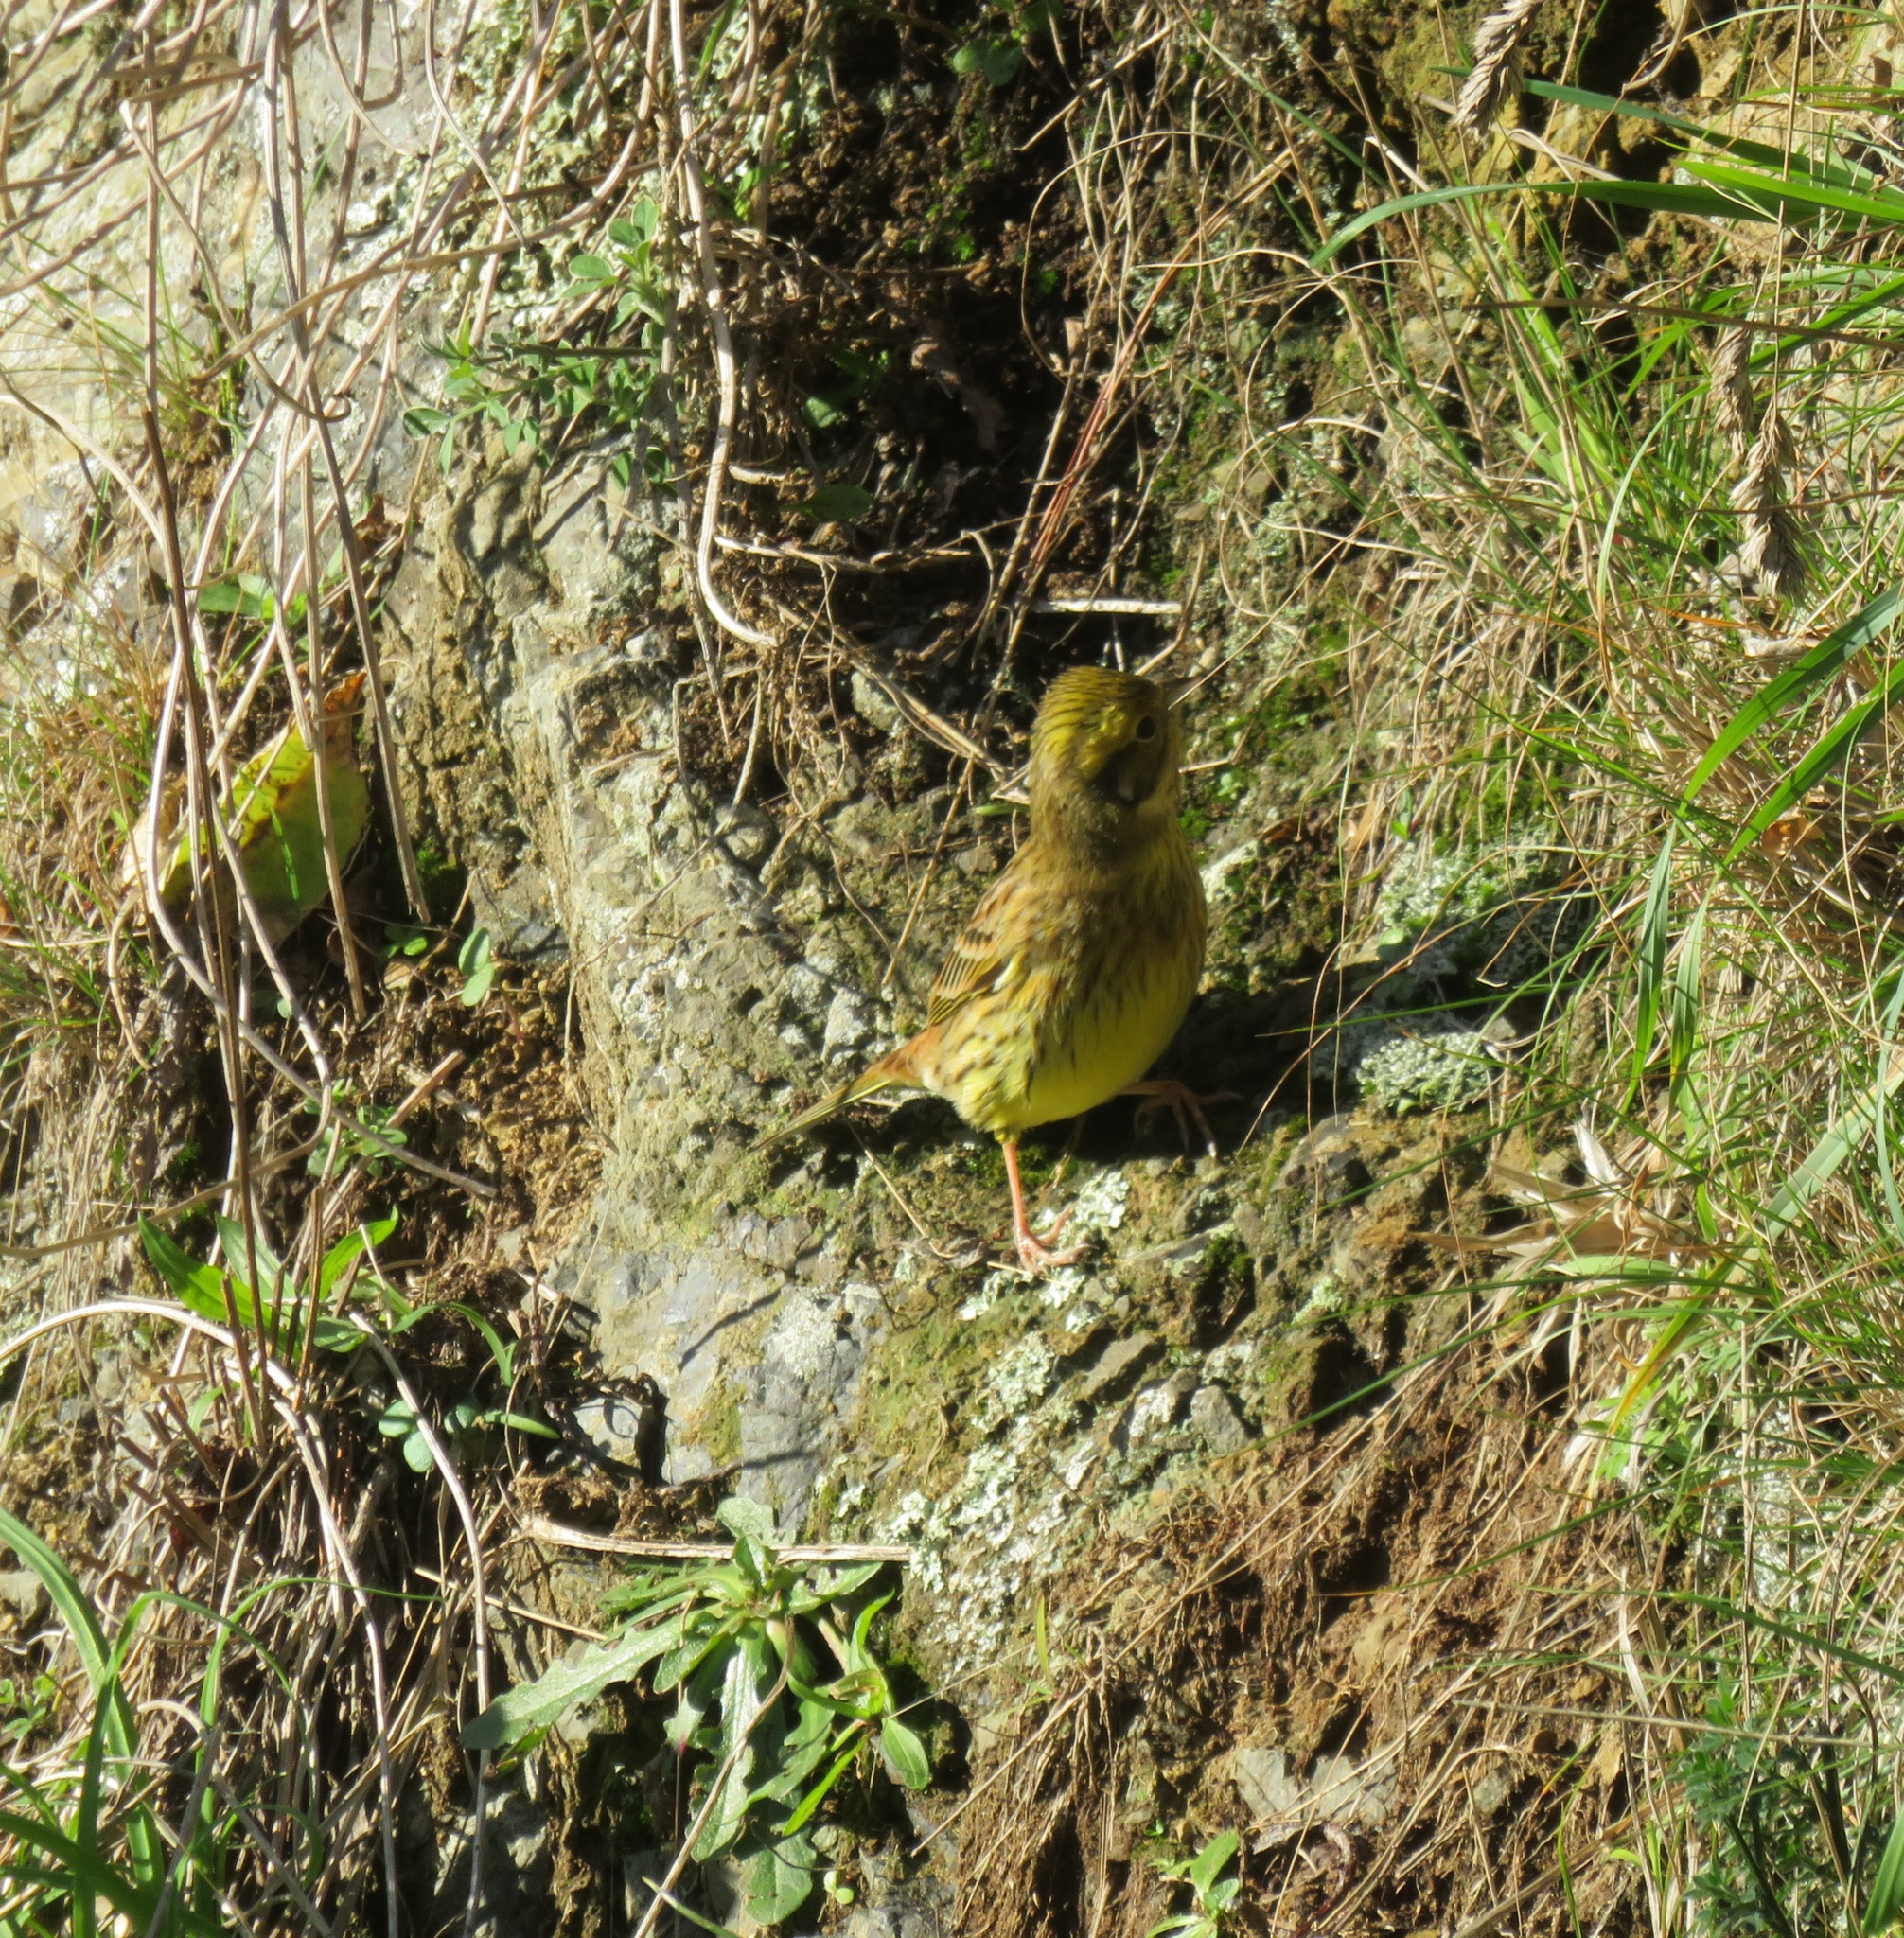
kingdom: Animalia
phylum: Chordata
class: Aves
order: Passeriformes
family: Emberizidae
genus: Emberiza
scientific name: Emberiza citrinella
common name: Yellowhammer
